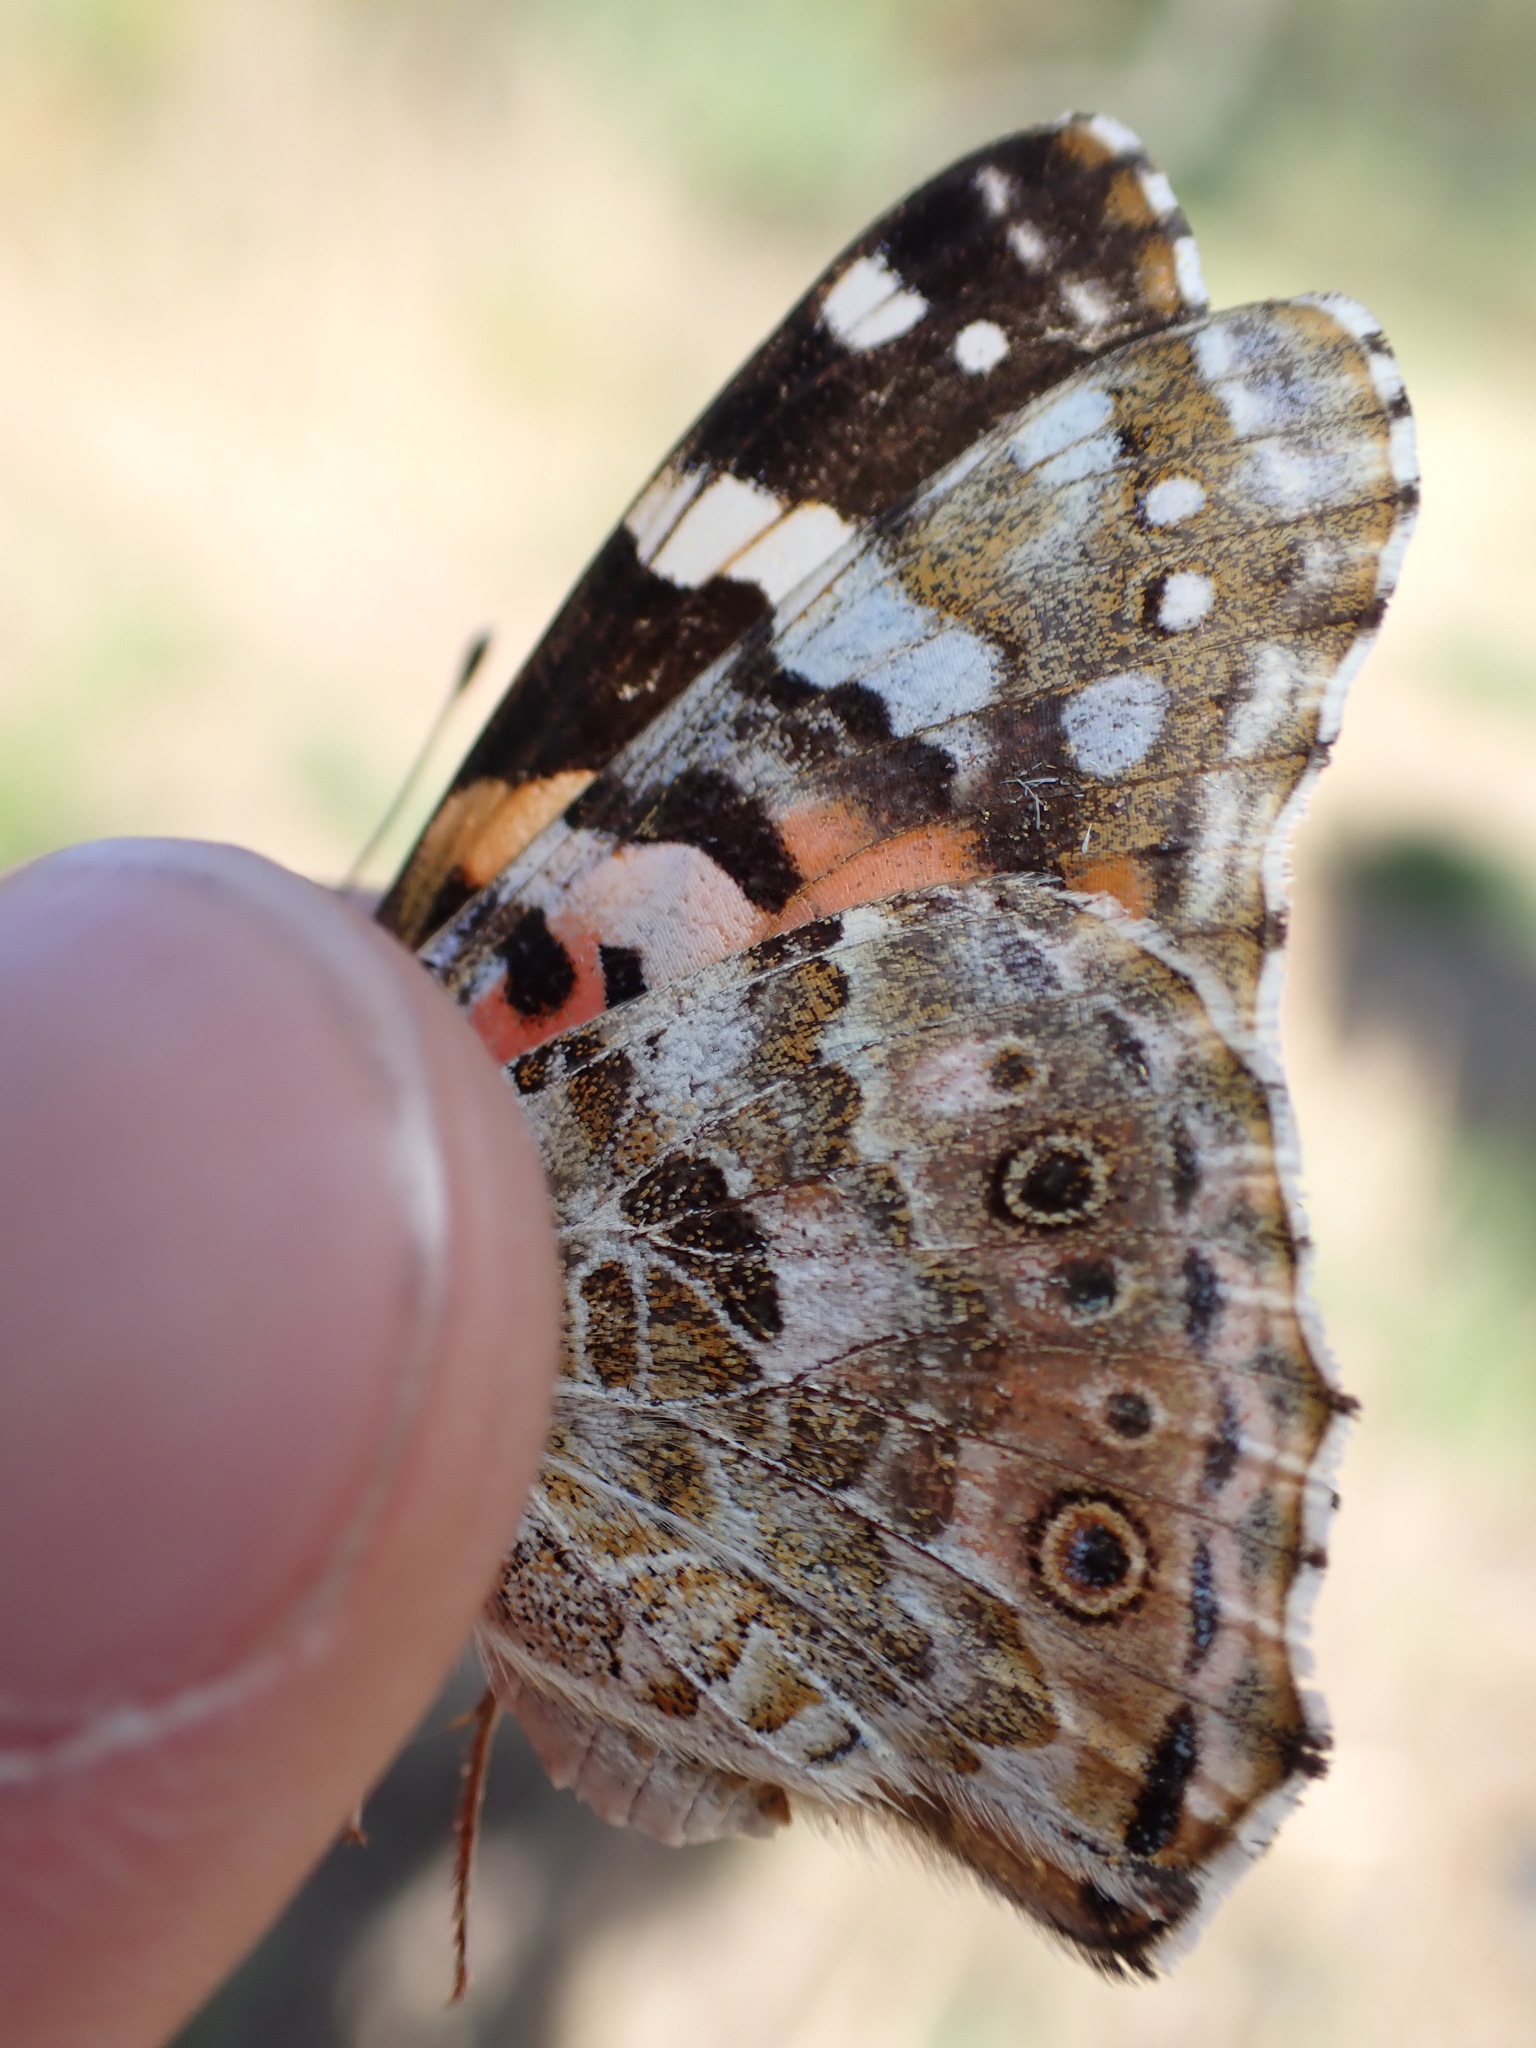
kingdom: Animalia
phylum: Arthropoda
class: Insecta
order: Lepidoptera
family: Nymphalidae
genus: Vanessa
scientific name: Vanessa cardui
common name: Painted lady
